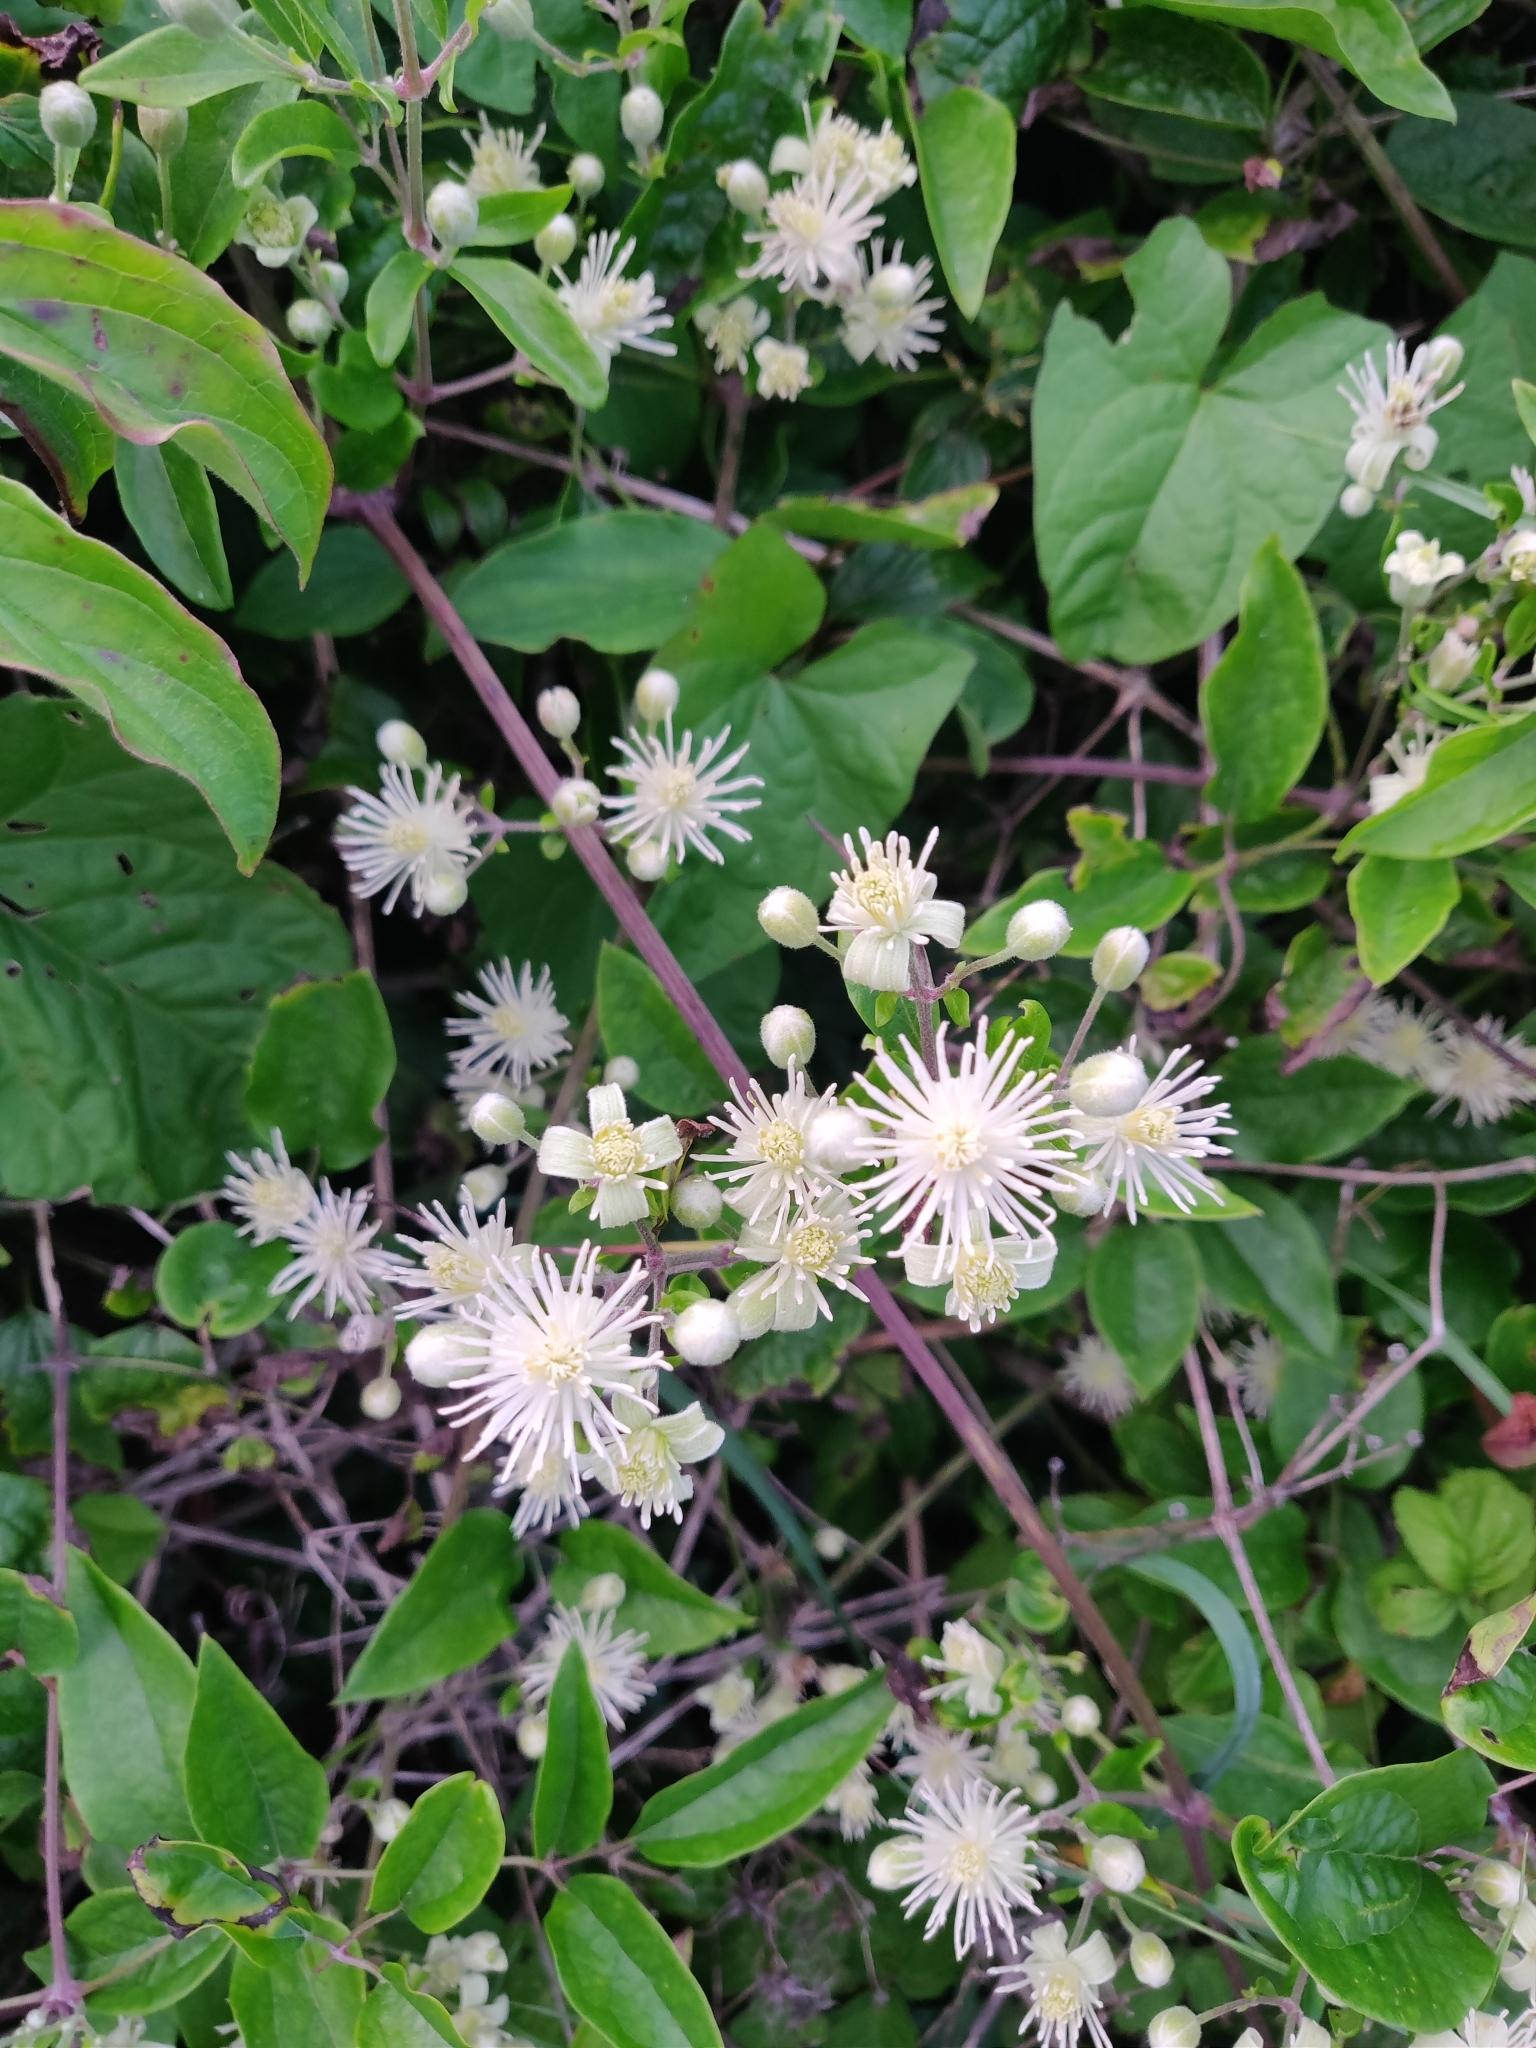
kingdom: Plantae
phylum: Tracheophyta
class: Magnoliopsida
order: Ranunculales
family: Ranunculaceae
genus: Clematis
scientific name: Clematis vitalba
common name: Evergreen clematis
